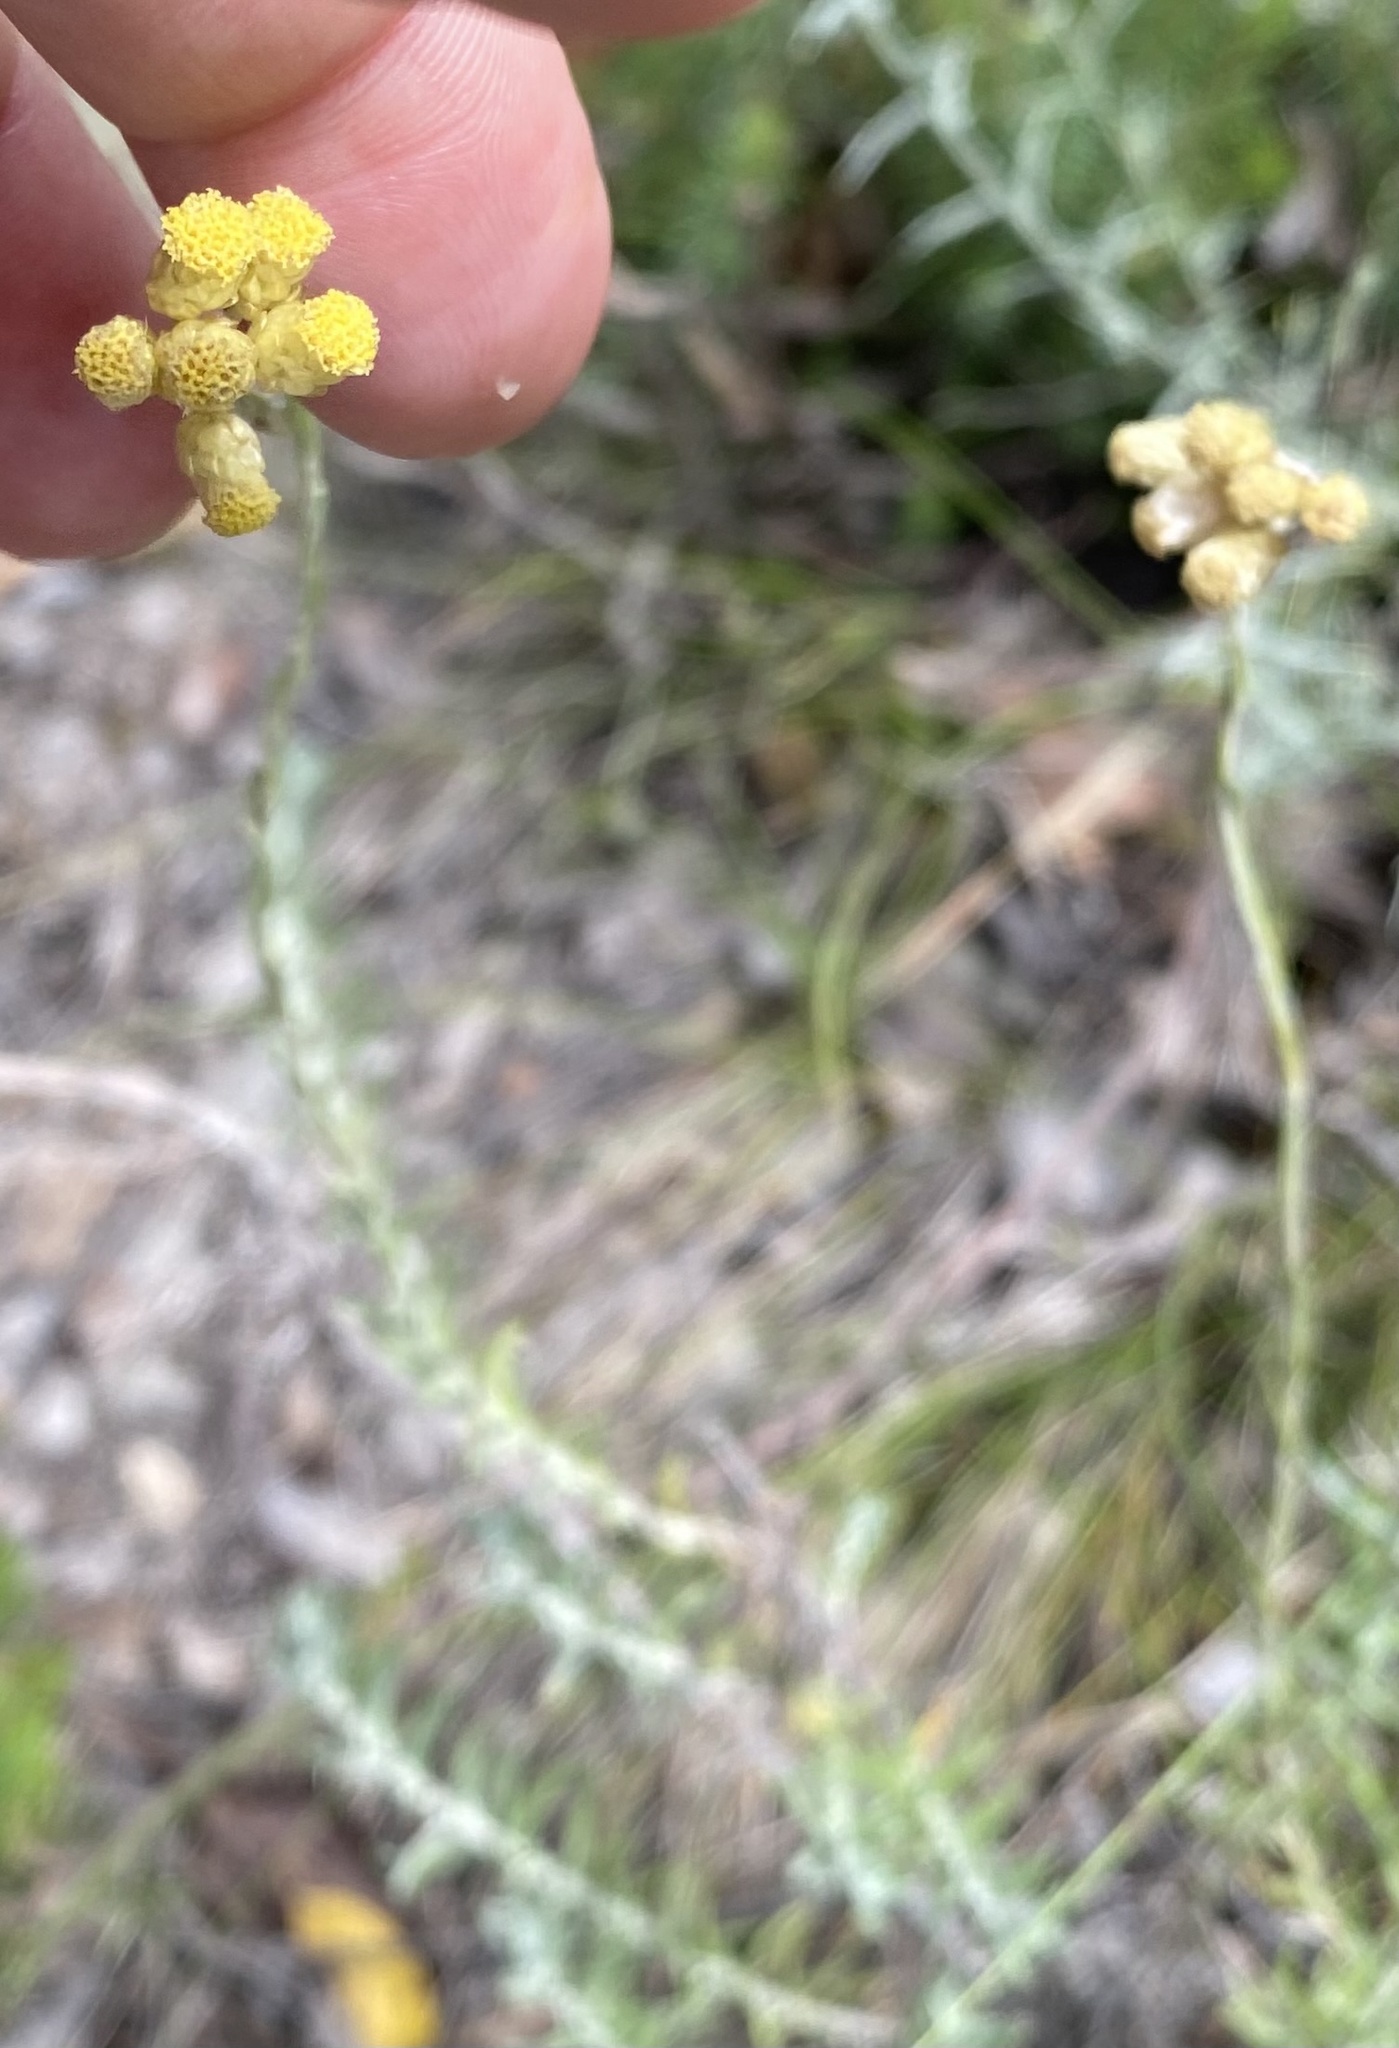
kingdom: Plantae
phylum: Tracheophyta
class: Magnoliopsida
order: Asterales
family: Asteraceae
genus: Helichrysum
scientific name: Helichrysum stoechas
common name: Goldilocks
